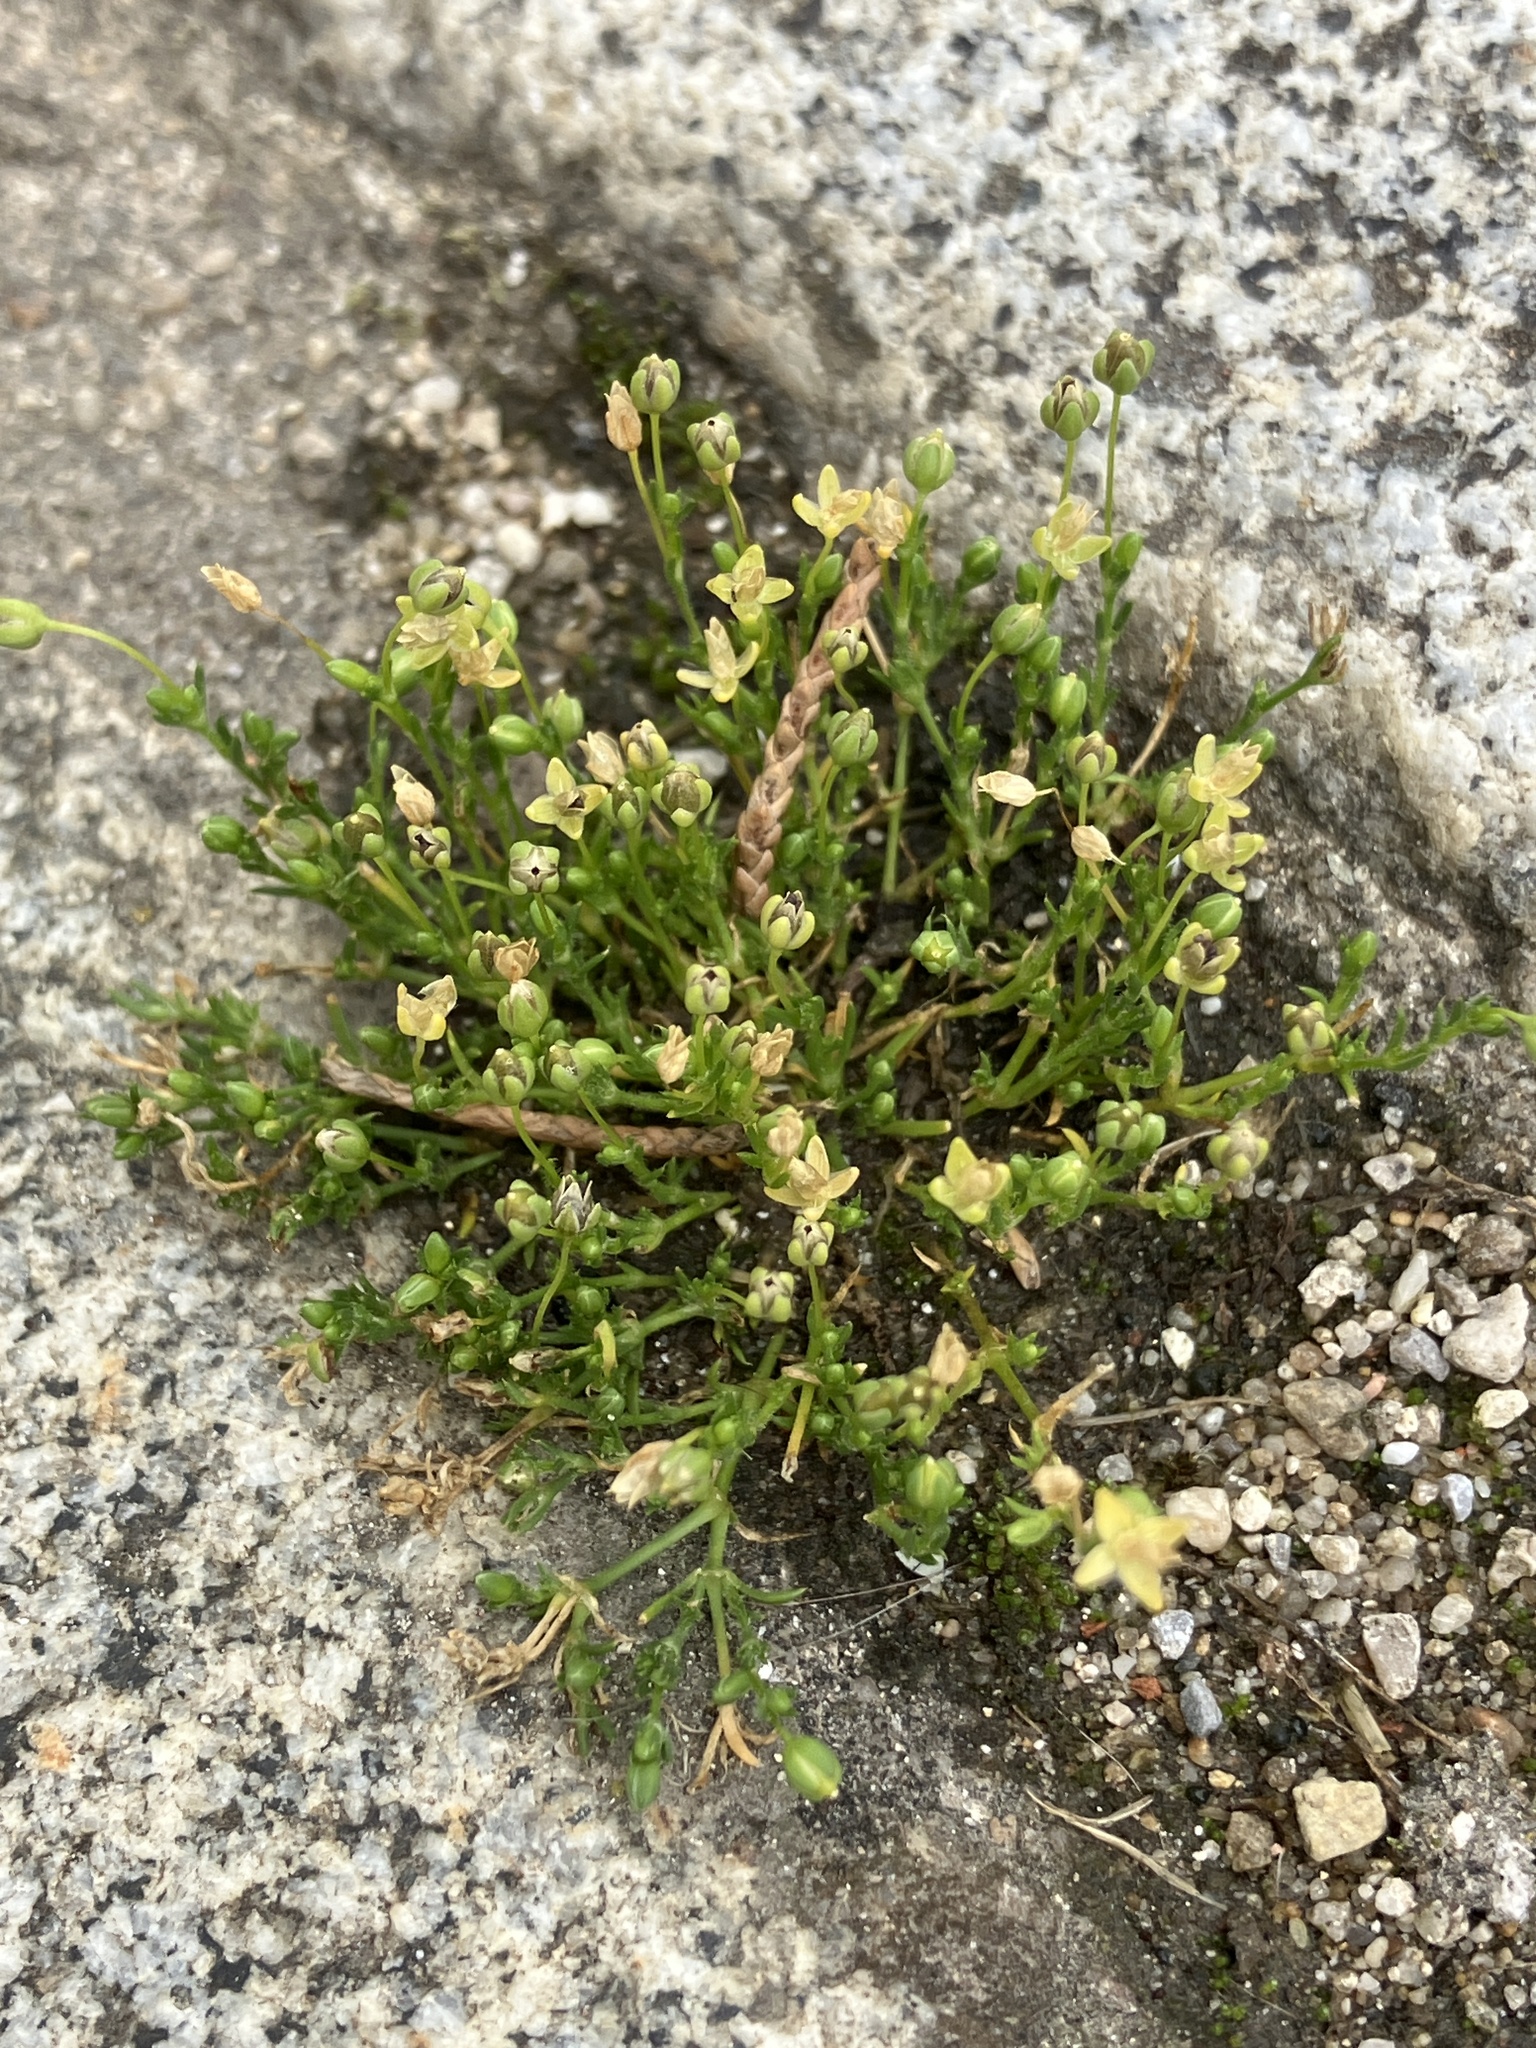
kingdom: Plantae
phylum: Tracheophyta
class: Magnoliopsida
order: Caryophyllales
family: Caryophyllaceae
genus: Sagina
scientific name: Sagina procumbens
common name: Procumbent pearlwort
